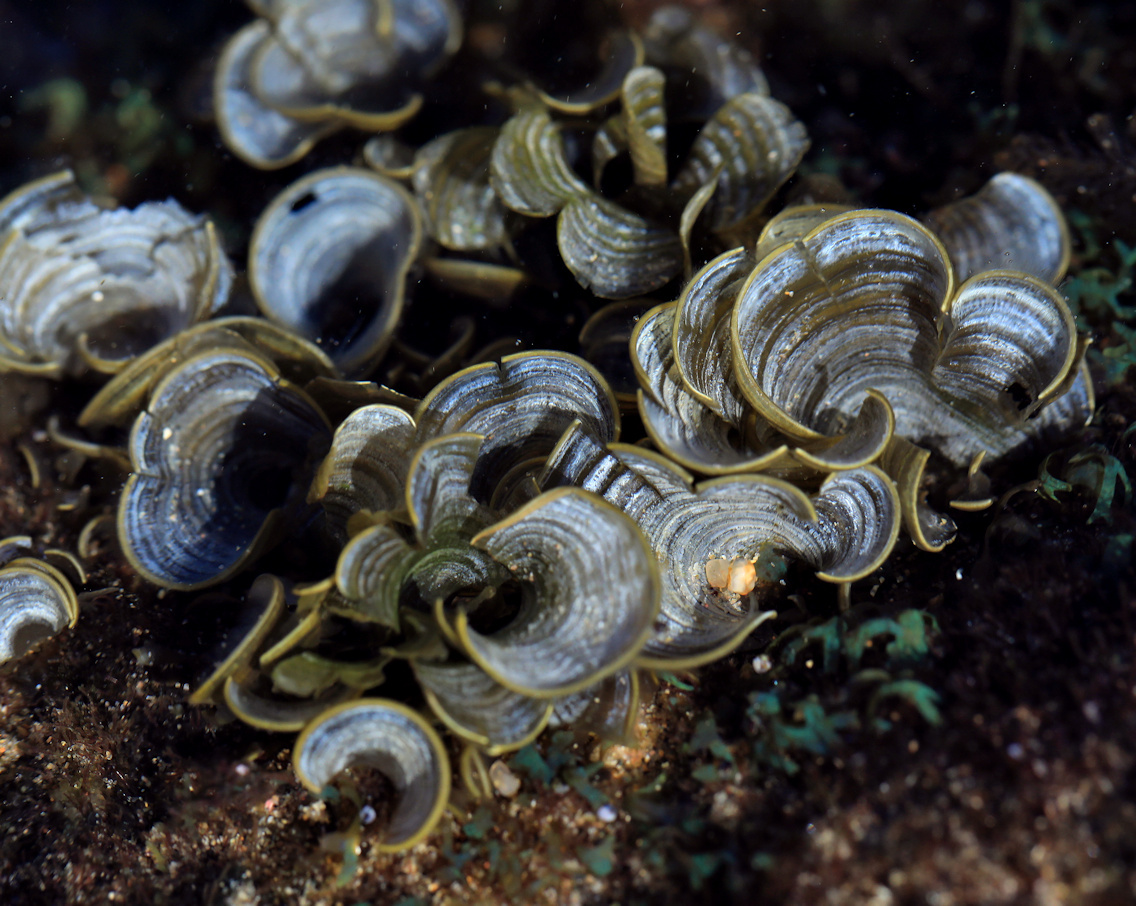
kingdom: Chromista
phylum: Ochrophyta
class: Phaeophyceae
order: Dictyotales
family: Dictyotaceae
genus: Padina
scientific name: Padina boryana
